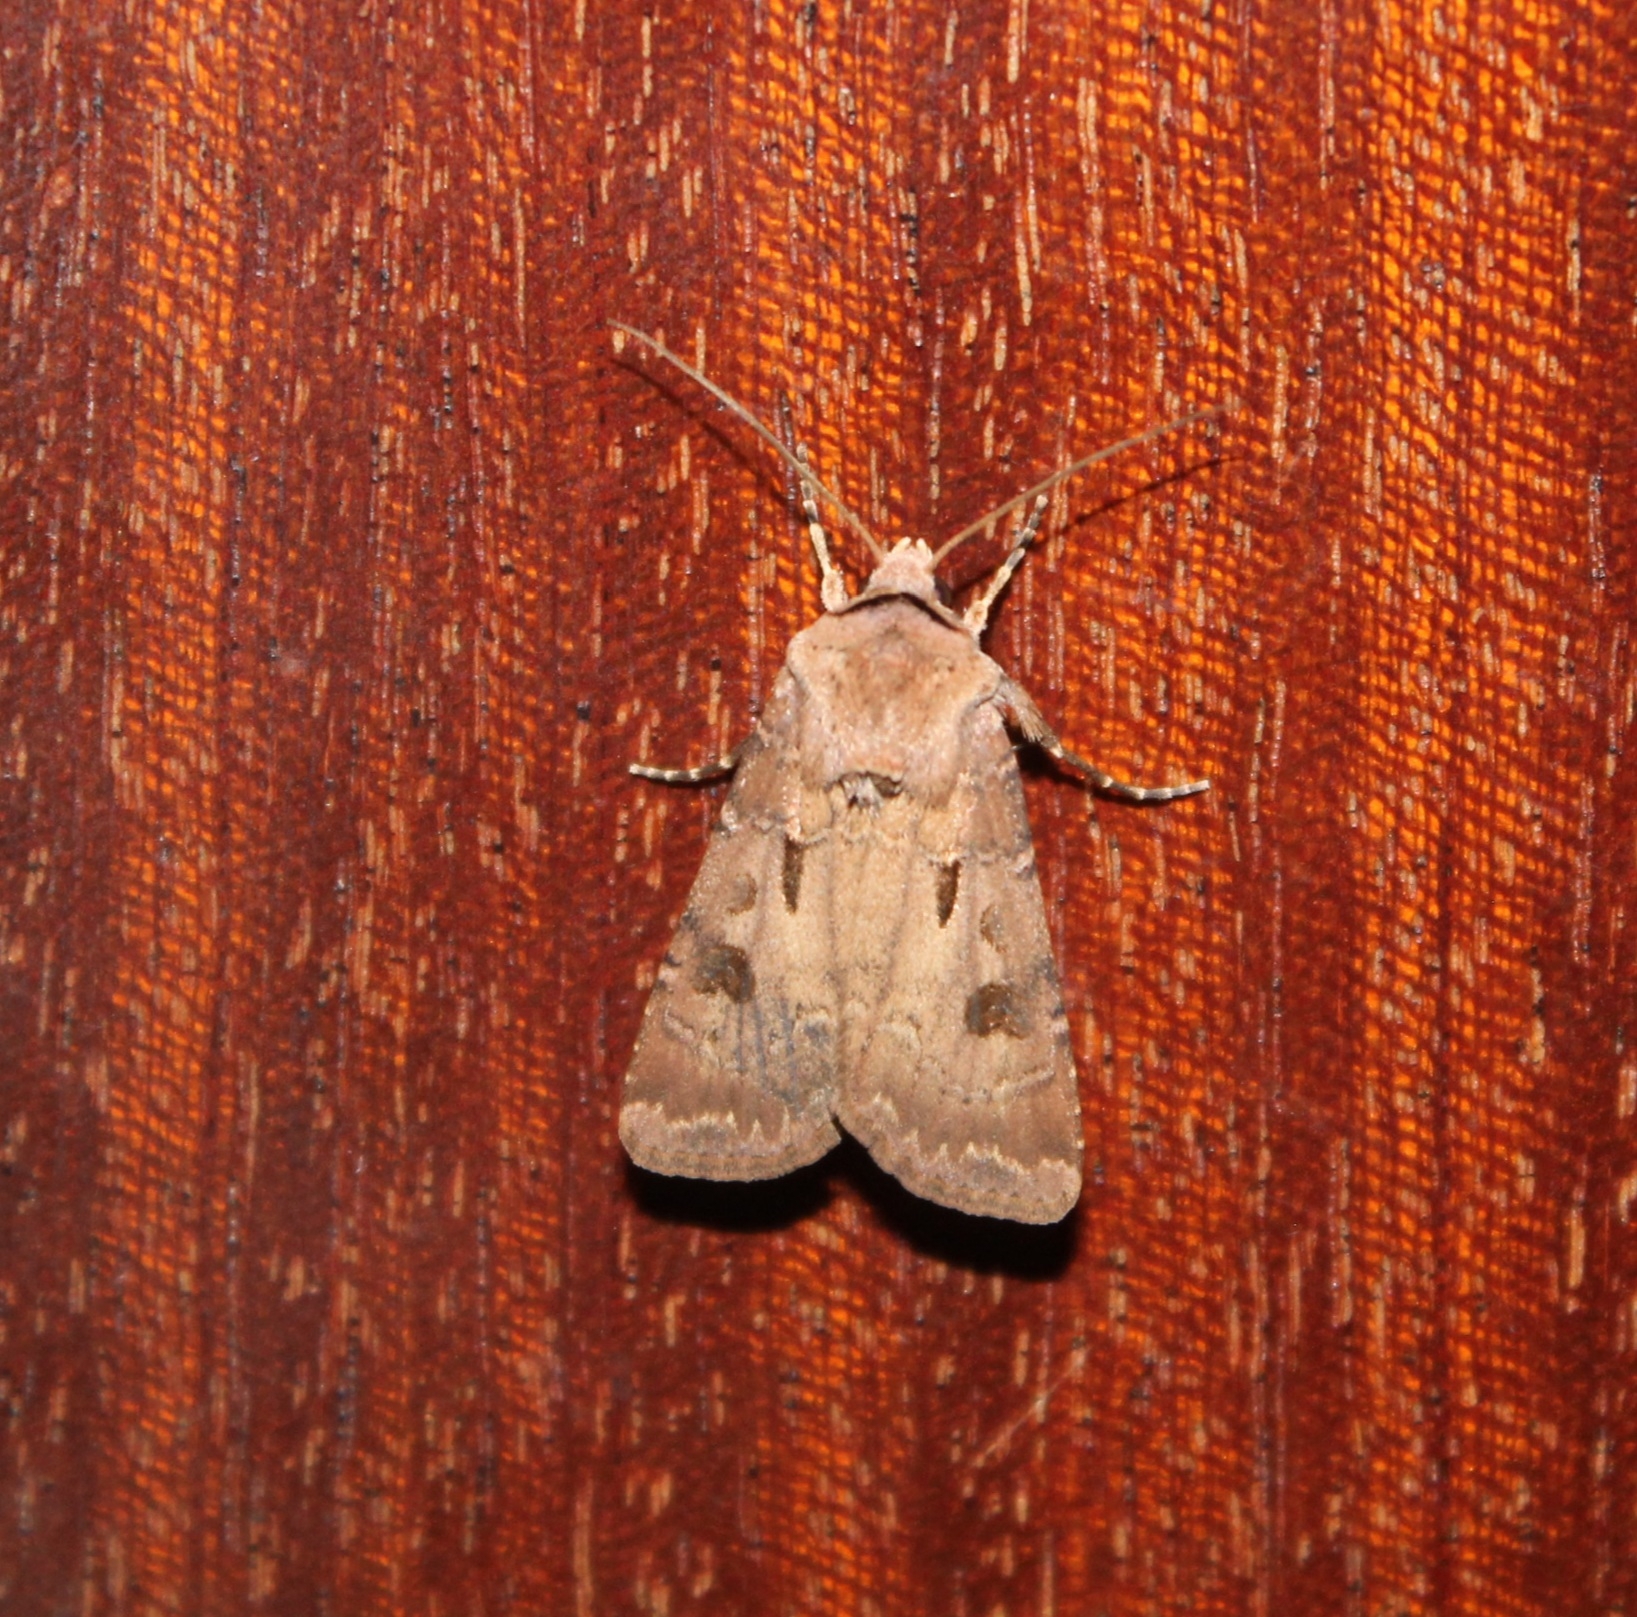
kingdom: Animalia
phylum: Arthropoda
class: Insecta
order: Lepidoptera
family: Noctuidae
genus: Agrotis
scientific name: Agrotis exclamationis
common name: Heart and dart
